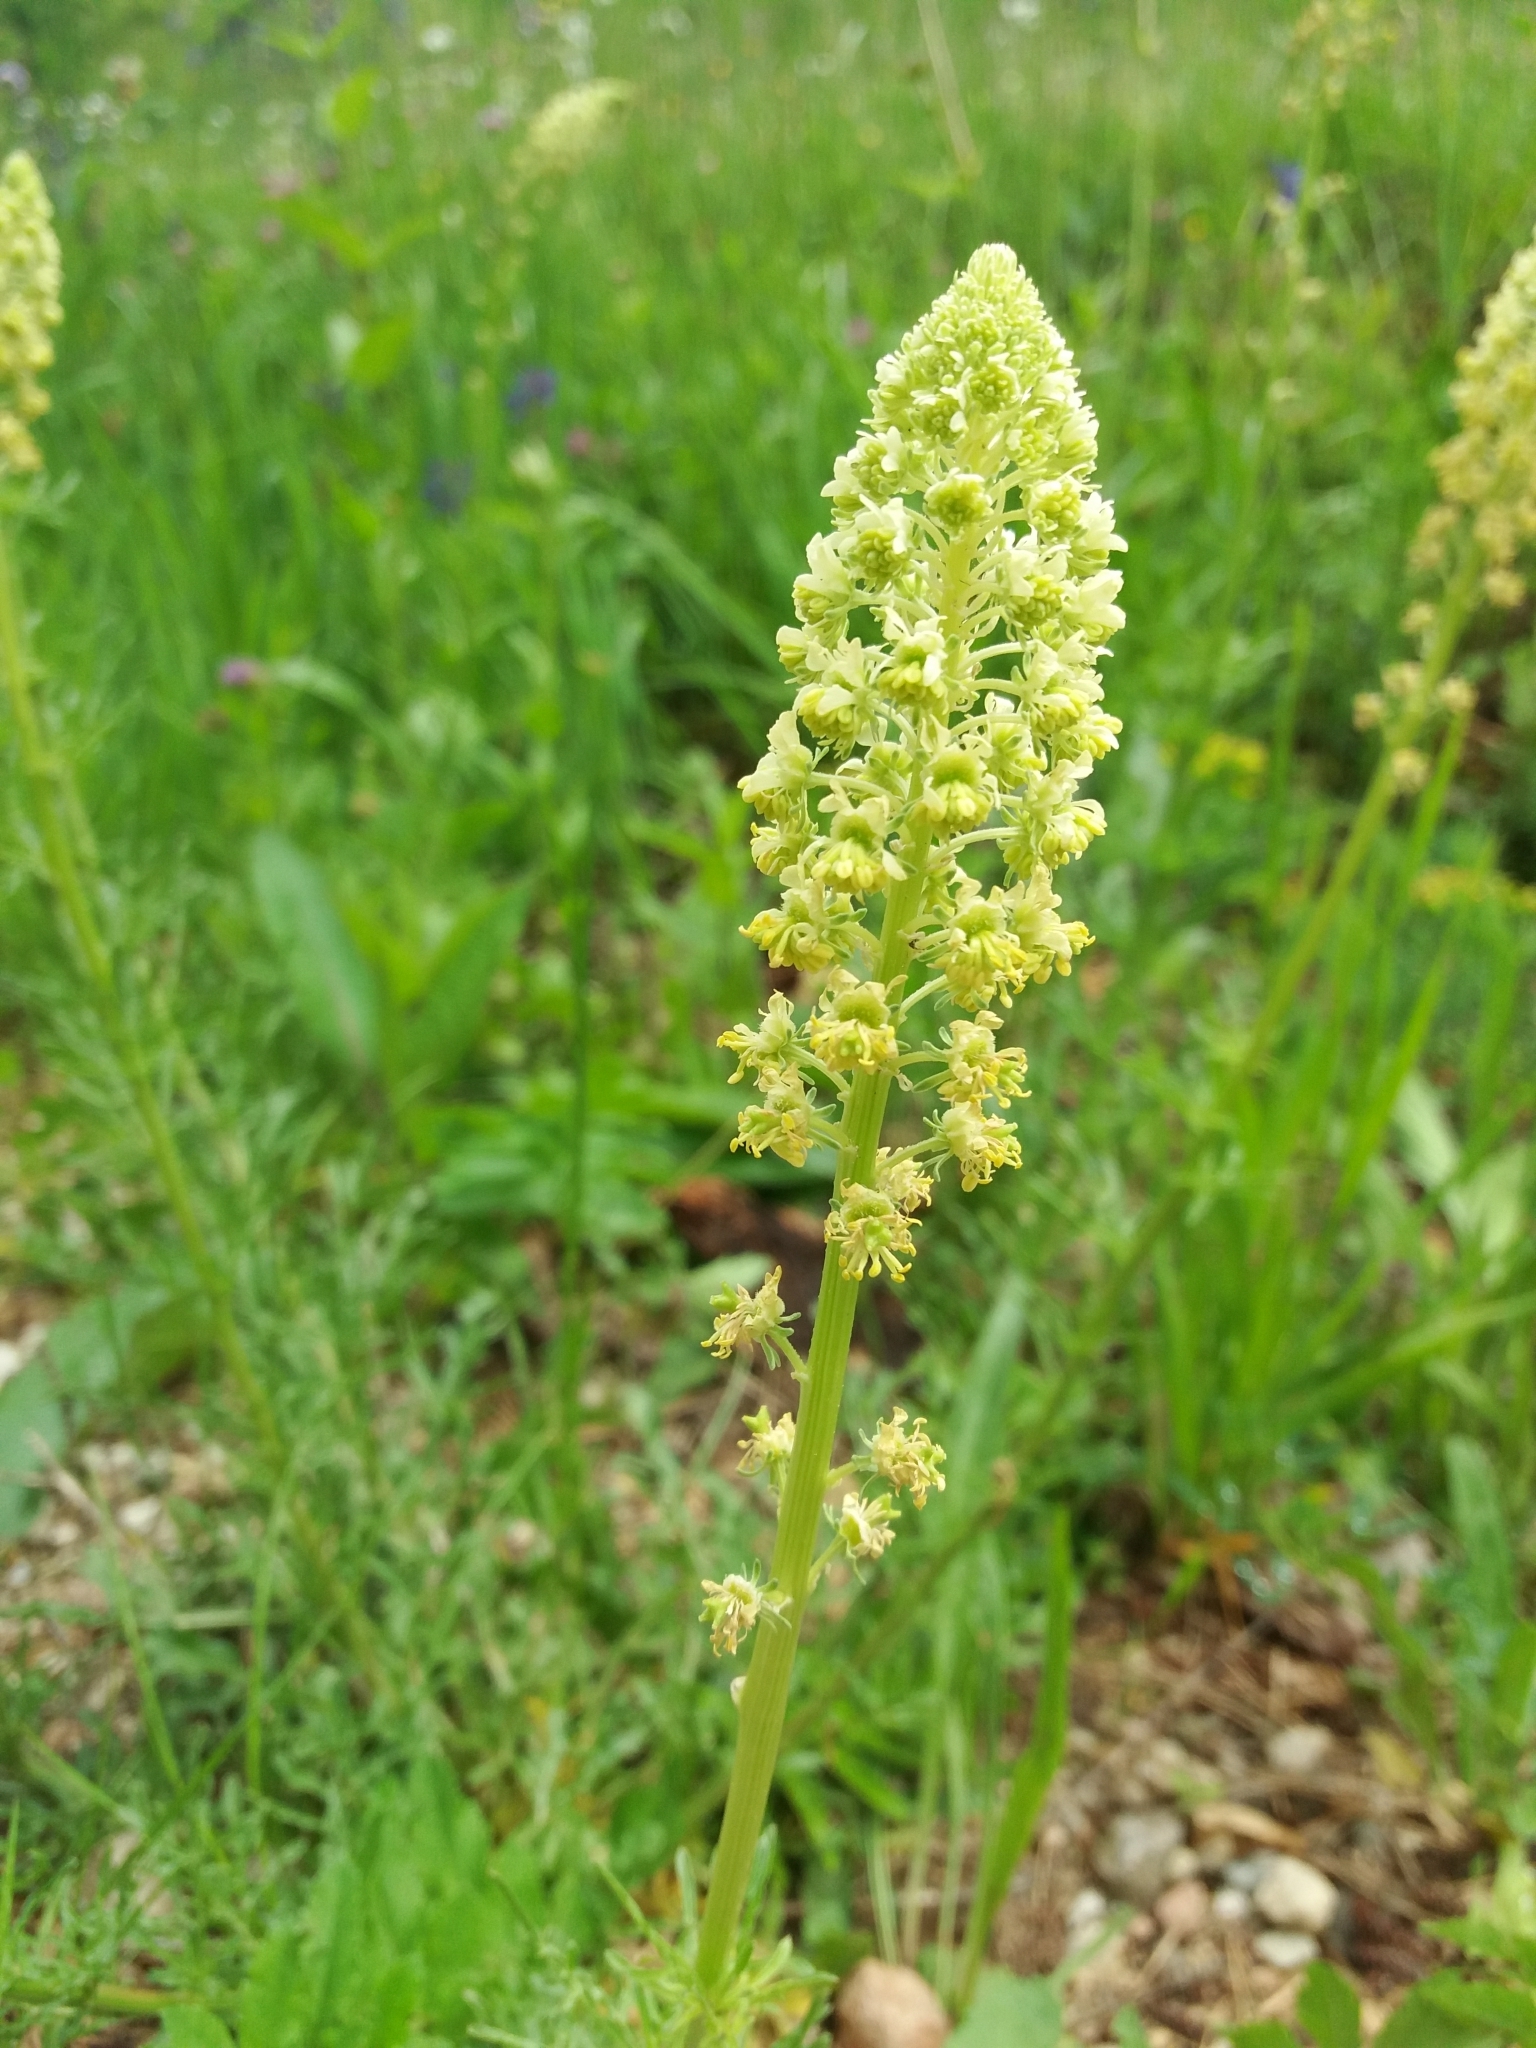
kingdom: Plantae
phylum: Tracheophyta
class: Magnoliopsida
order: Brassicales
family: Resedaceae
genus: Reseda
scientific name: Reseda lutea
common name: Wild mignonette
